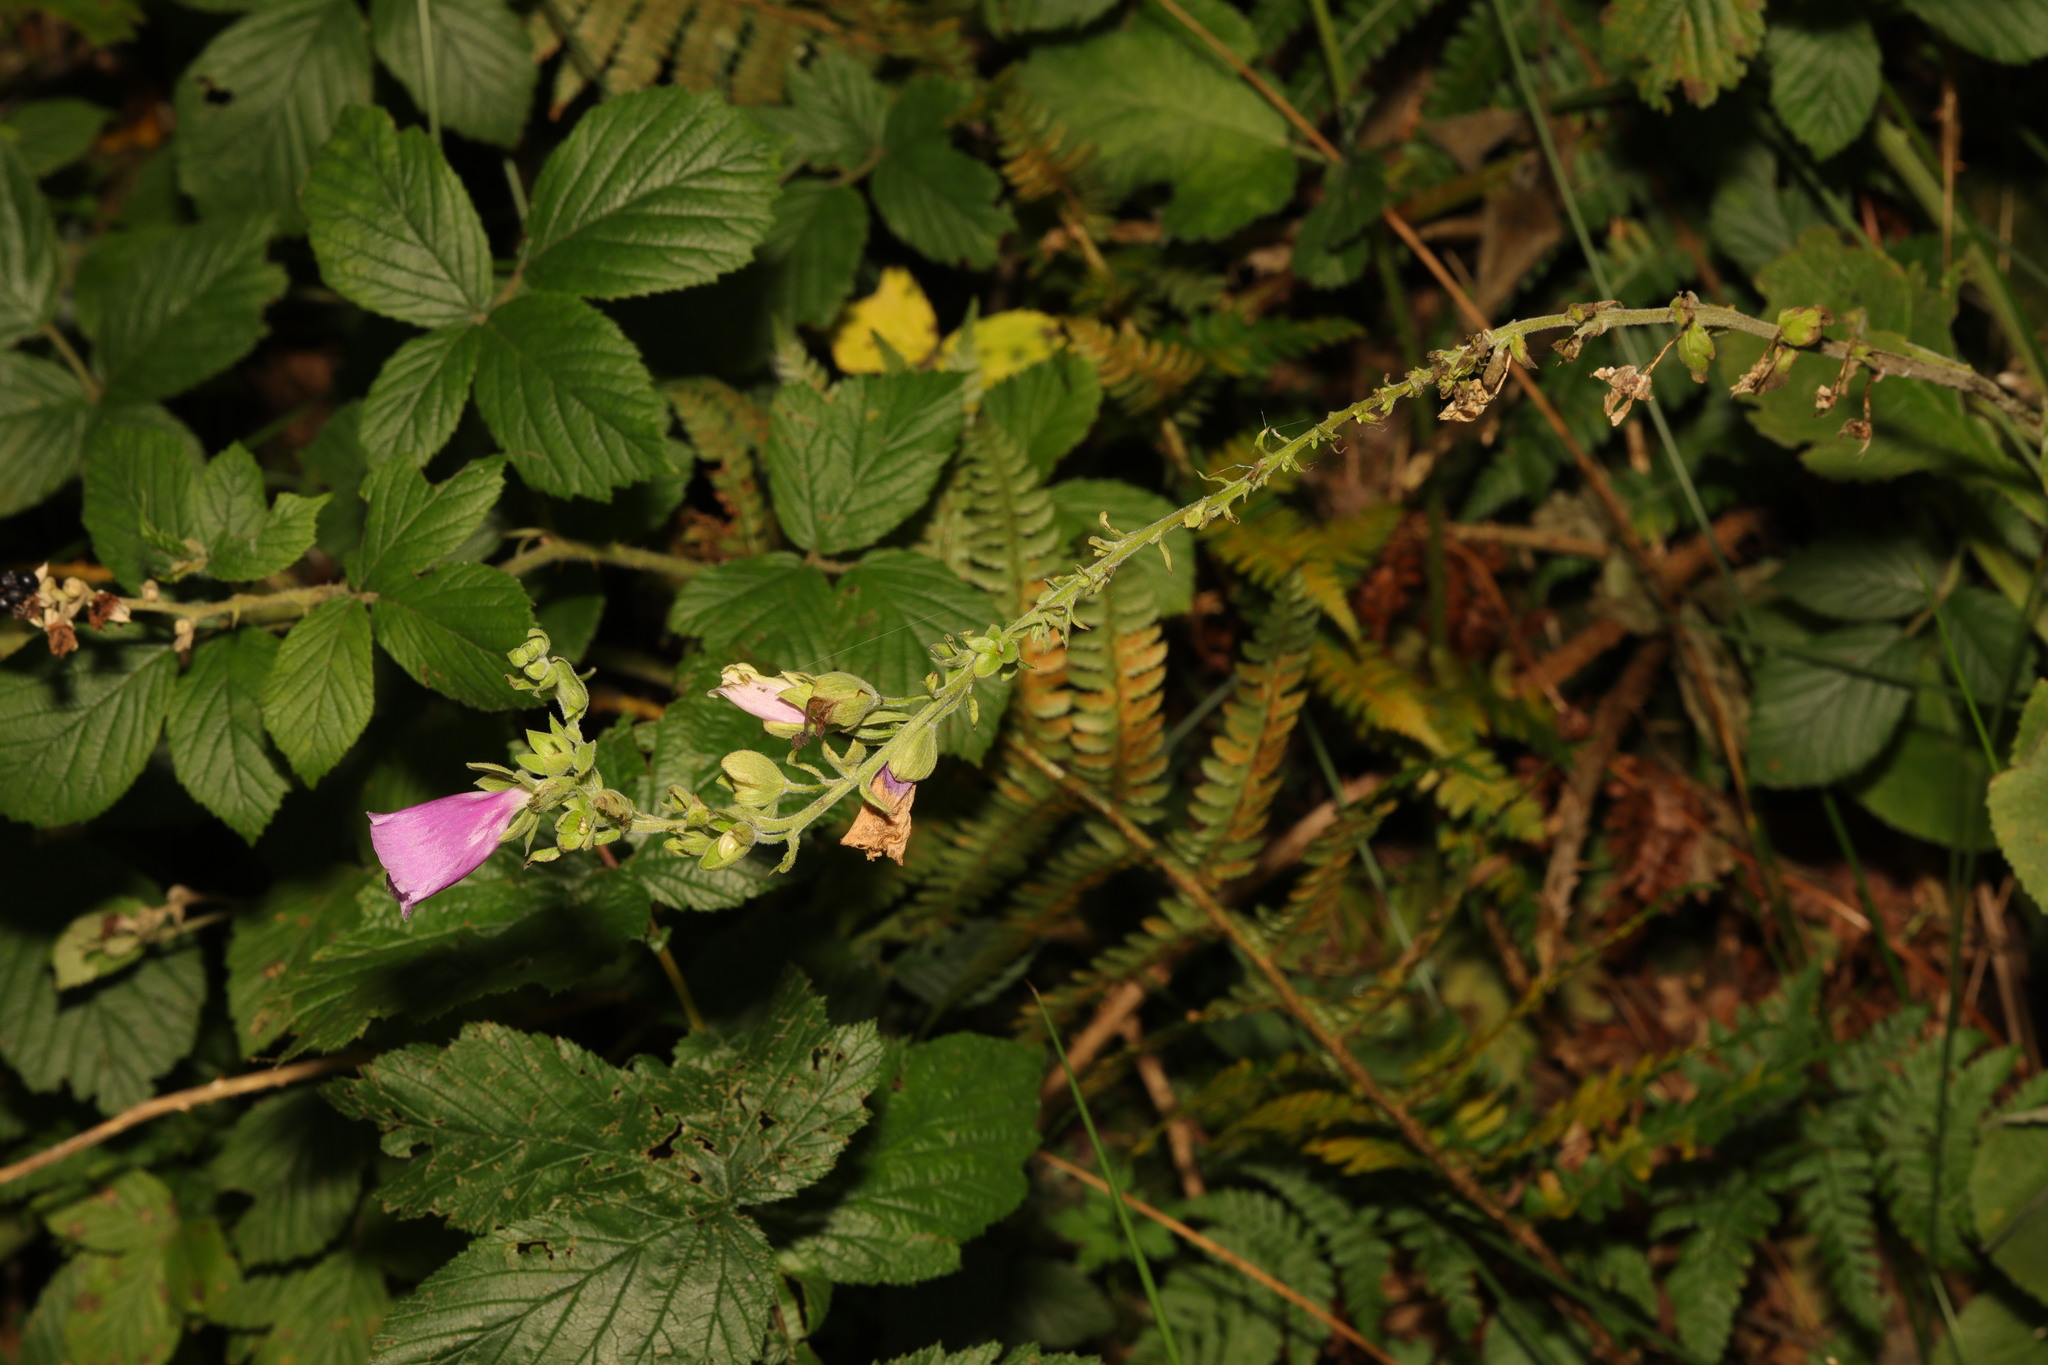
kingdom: Plantae
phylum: Tracheophyta
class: Magnoliopsida
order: Lamiales
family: Plantaginaceae
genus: Digitalis
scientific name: Digitalis purpurea
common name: Foxglove
